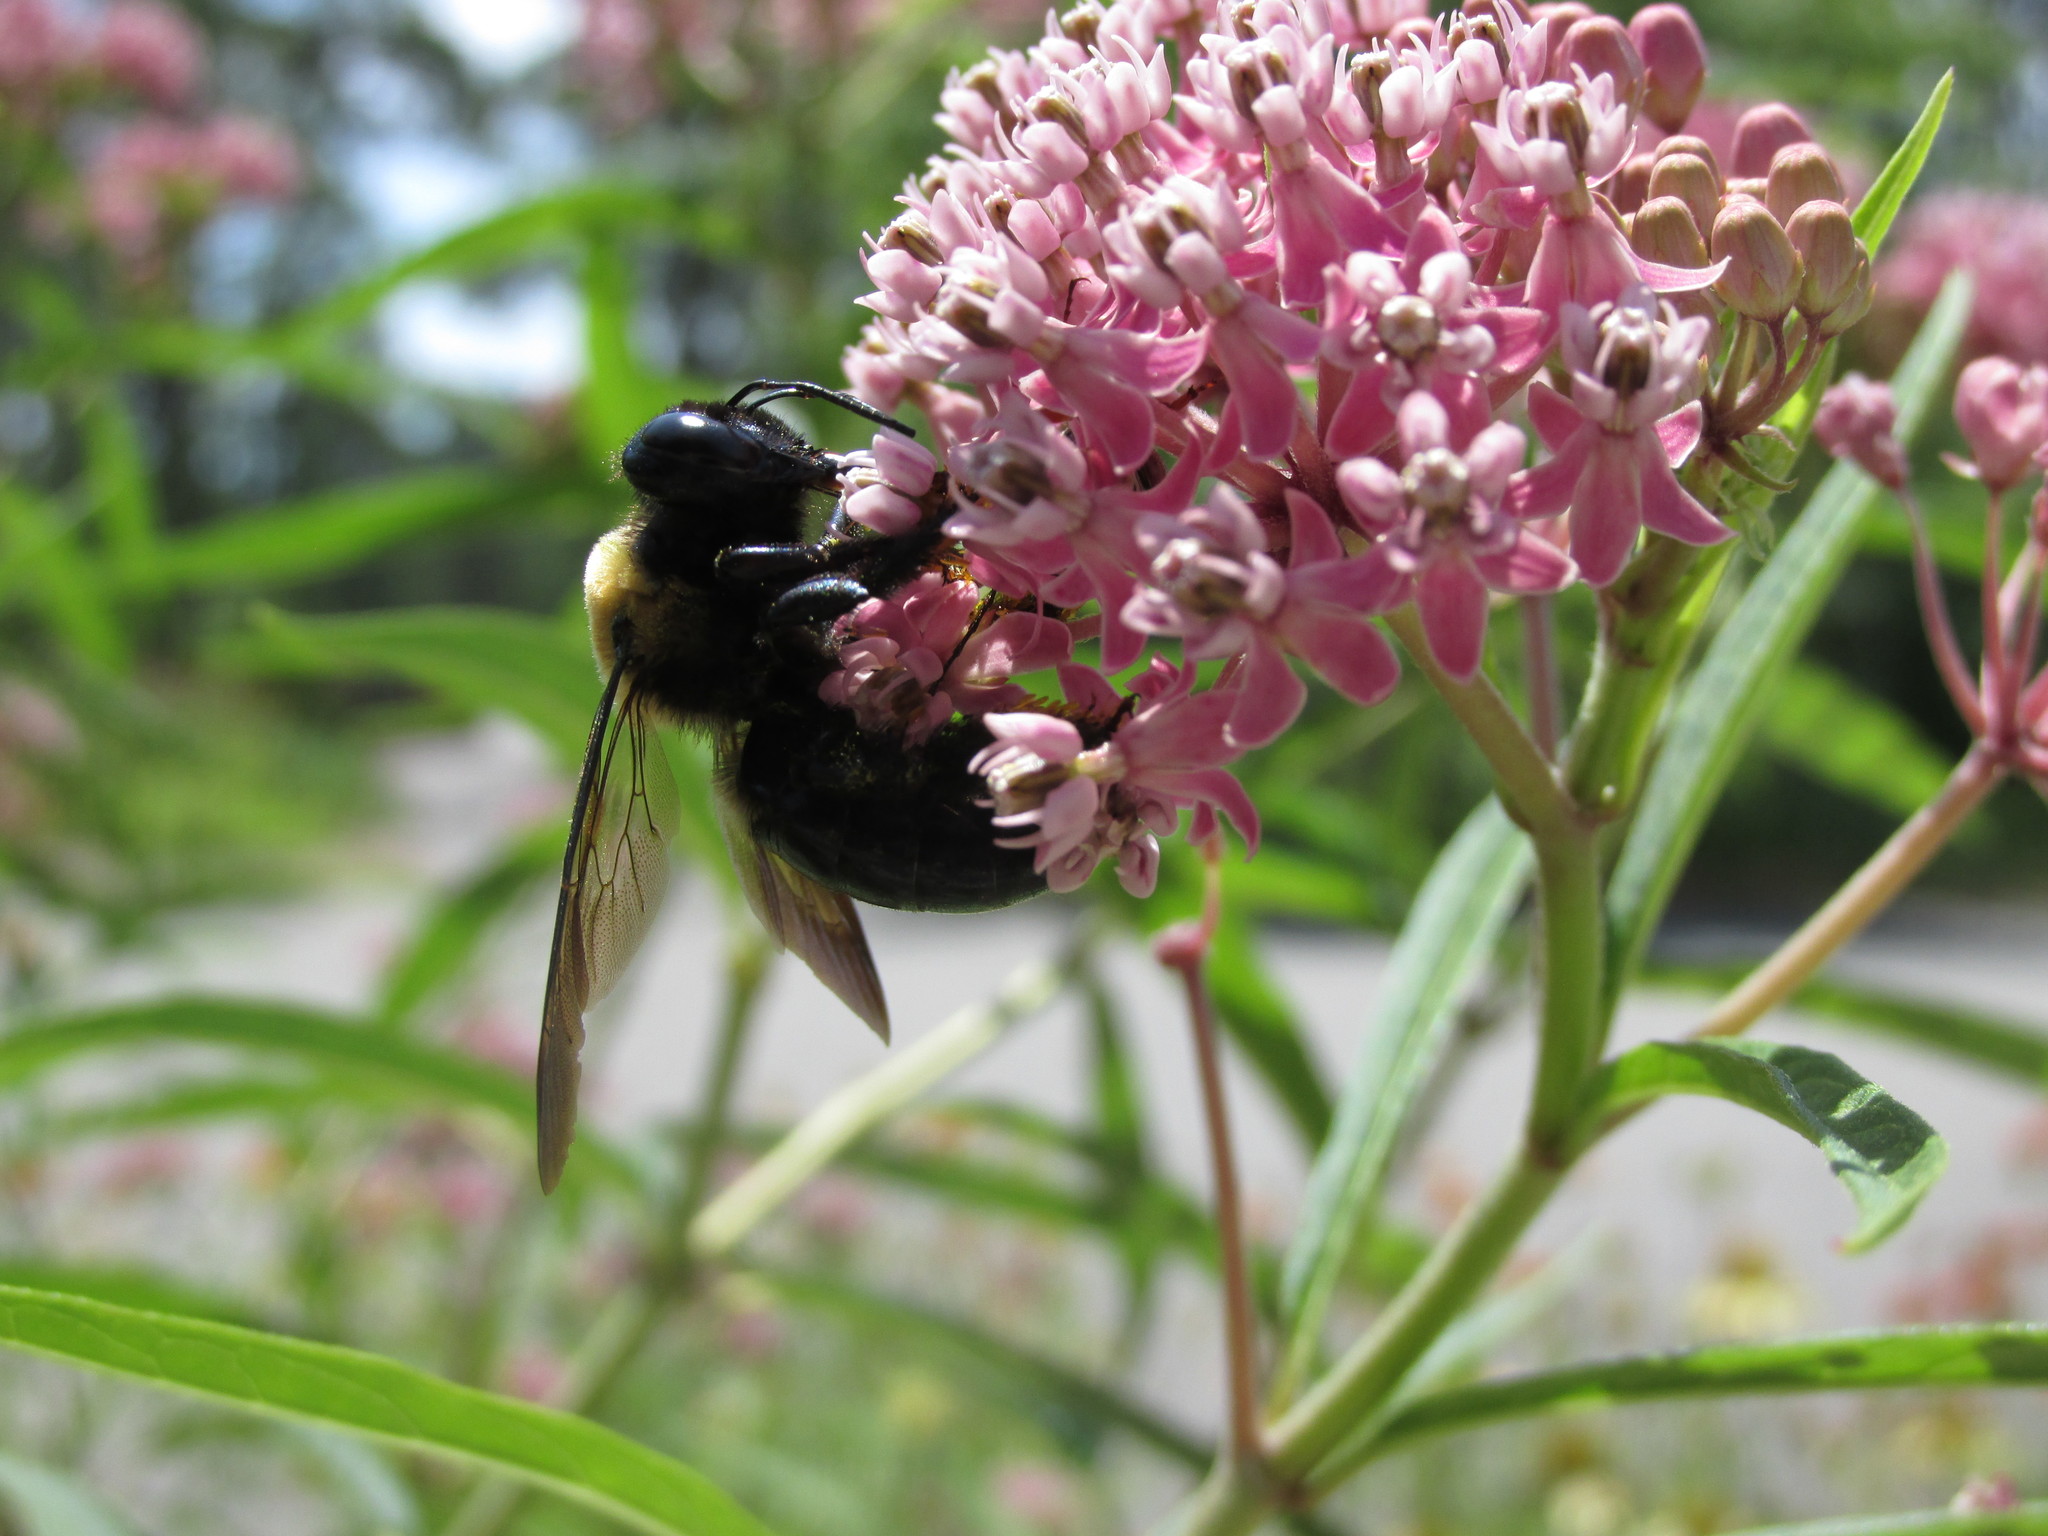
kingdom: Animalia
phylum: Arthropoda
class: Insecta
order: Hymenoptera
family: Apidae
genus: Xylocopa
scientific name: Xylocopa virginica
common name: Carpenter bee
